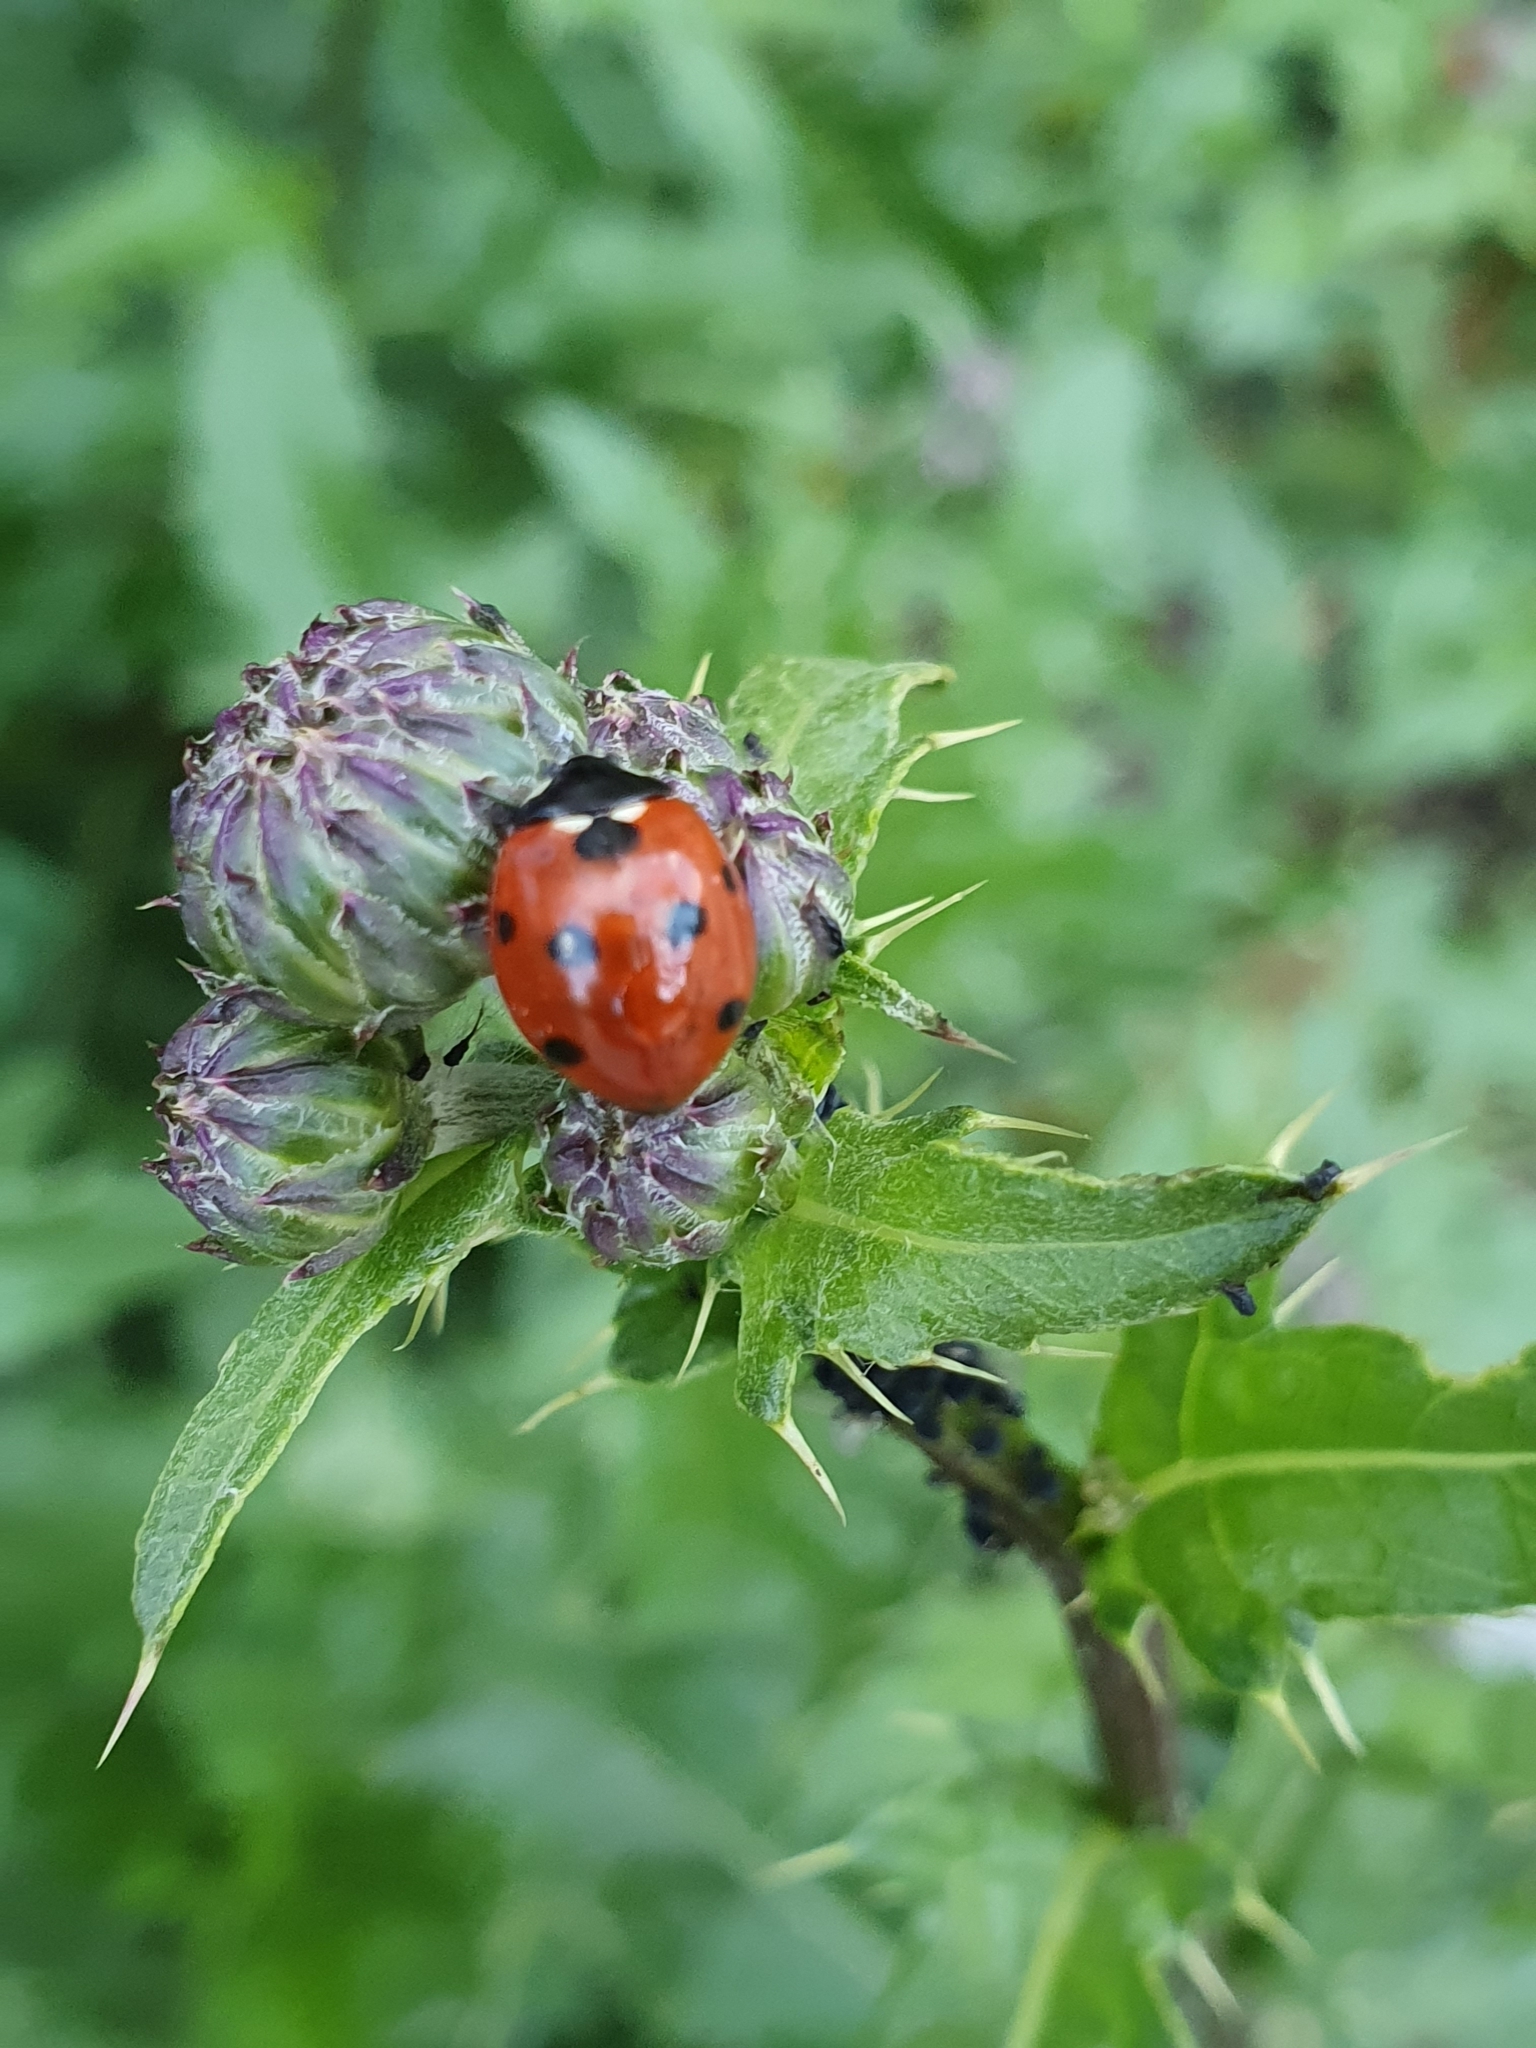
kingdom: Animalia
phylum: Arthropoda
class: Insecta
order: Coleoptera
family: Coccinellidae
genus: Coccinella
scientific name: Coccinella septempunctata
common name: Sevenspotted lady beetle
